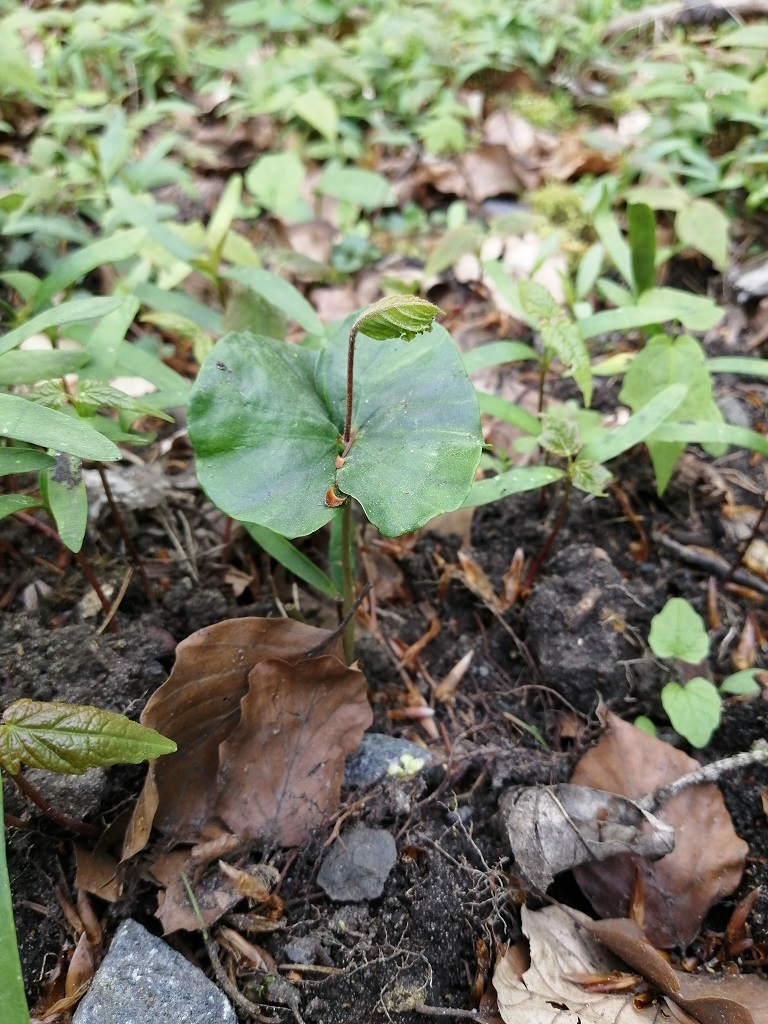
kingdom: Plantae
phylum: Tracheophyta
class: Magnoliopsida
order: Fagales
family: Fagaceae
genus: Fagus
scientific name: Fagus sylvatica
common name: Beech
